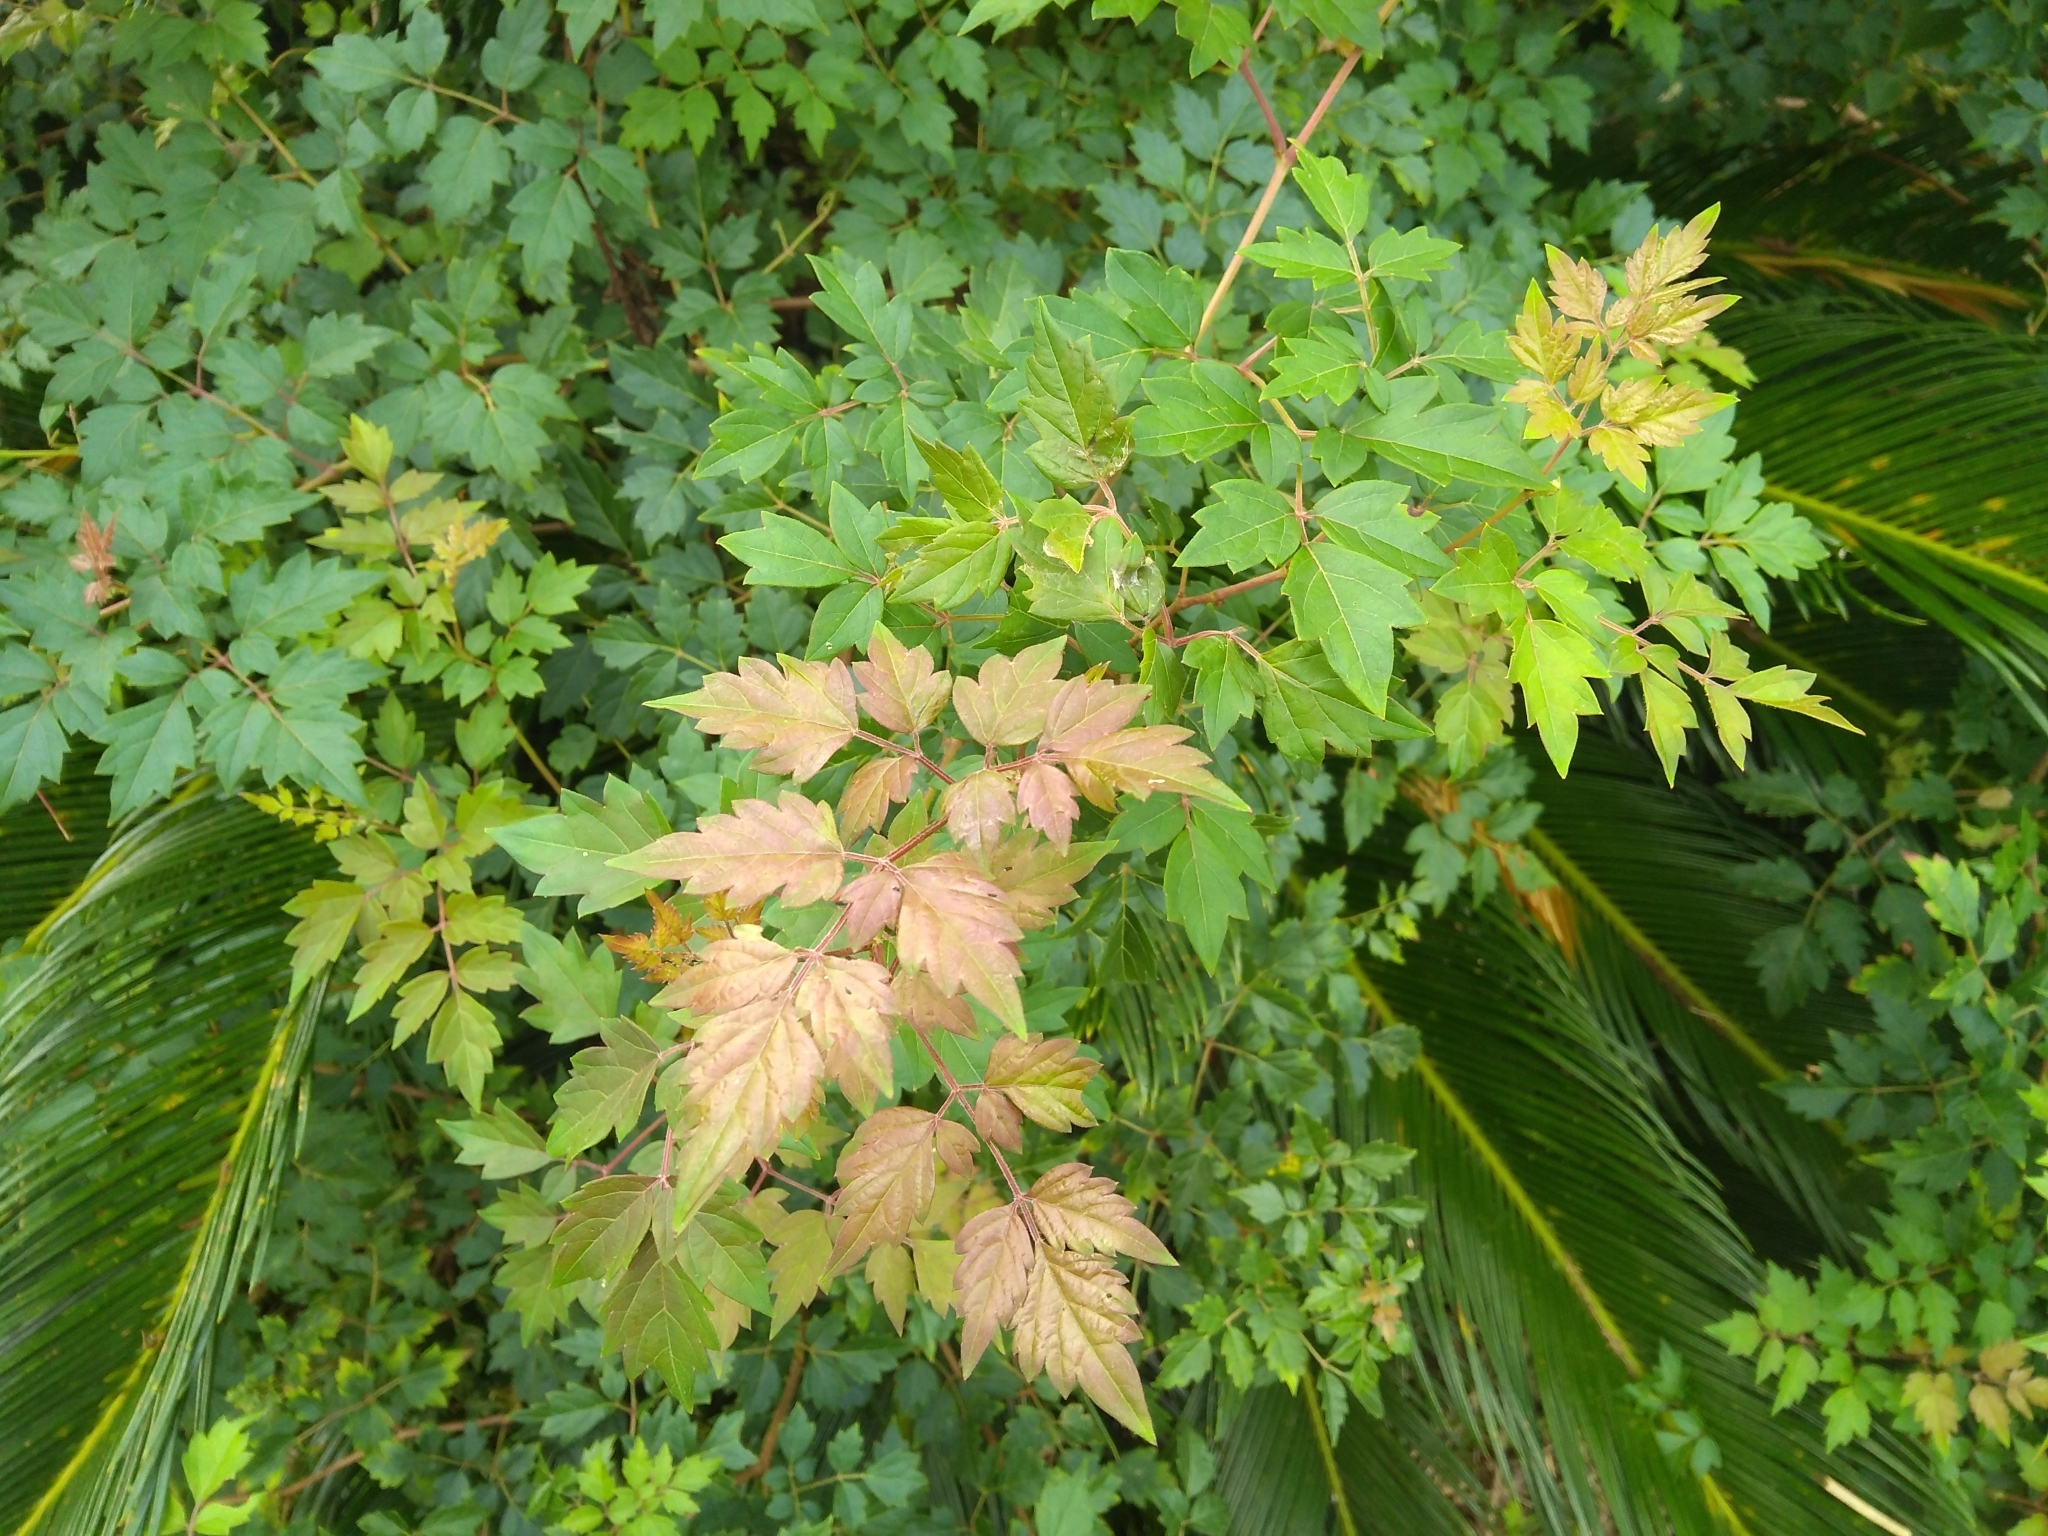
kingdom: Plantae
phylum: Tracheophyta
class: Magnoliopsida
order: Vitales
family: Vitaceae
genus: Nekemias
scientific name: Nekemias arborea
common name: Peppervine
